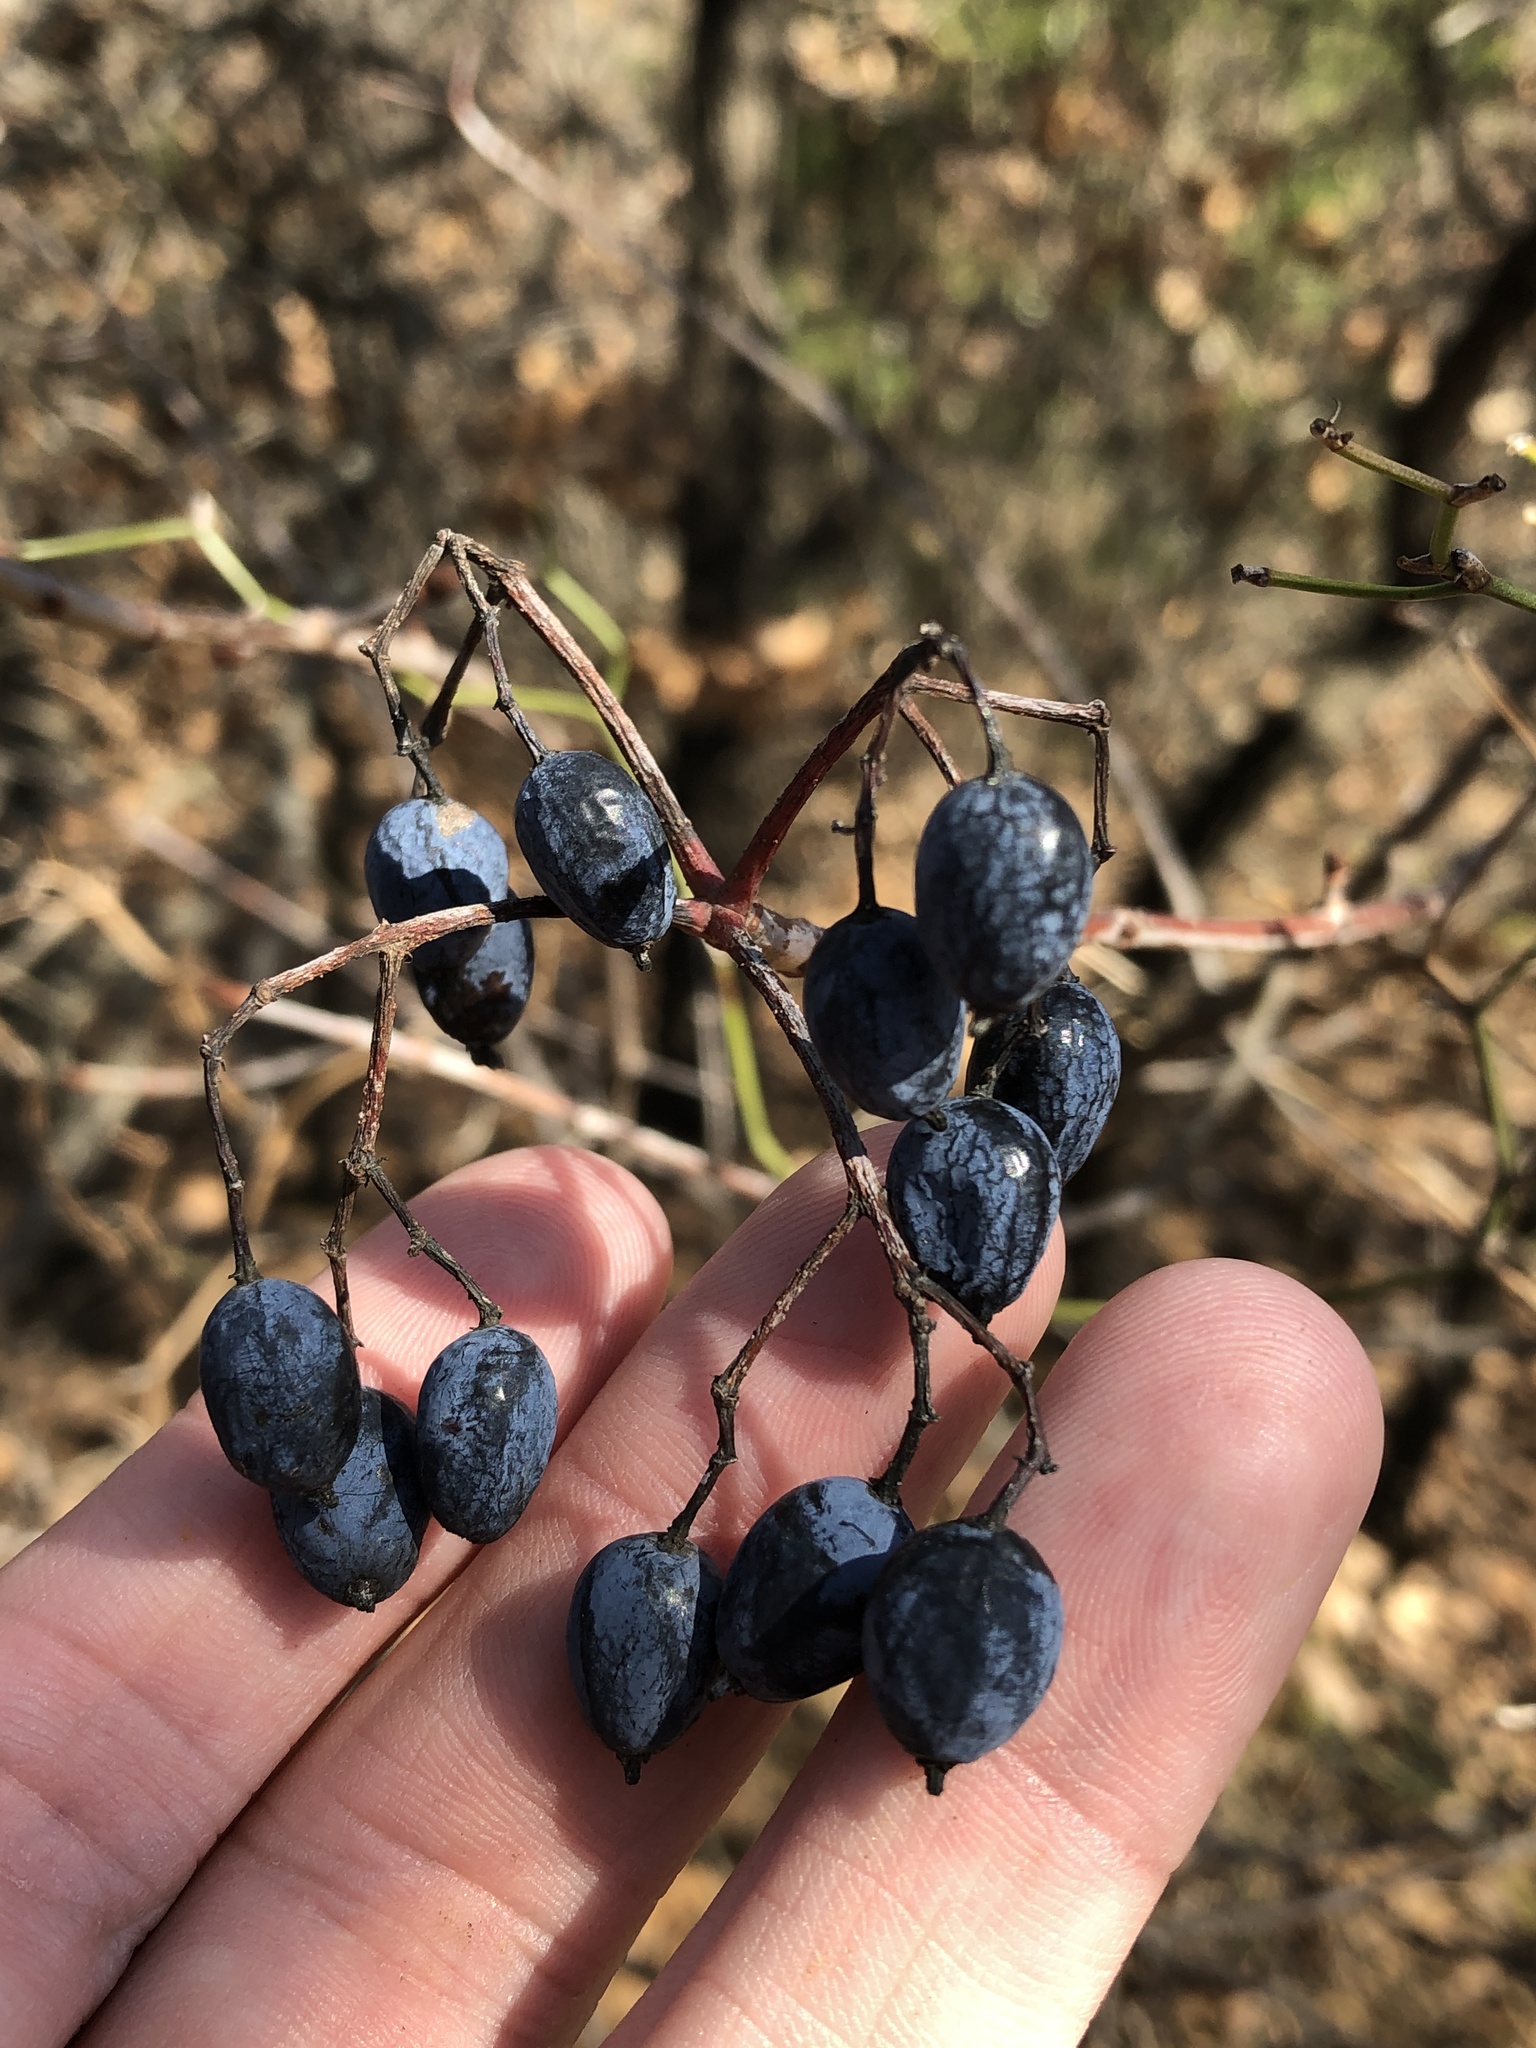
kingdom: Plantae
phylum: Tracheophyta
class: Magnoliopsida
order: Dipsacales
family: Viburnaceae
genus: Viburnum
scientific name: Viburnum rufidulum
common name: Blue haw
